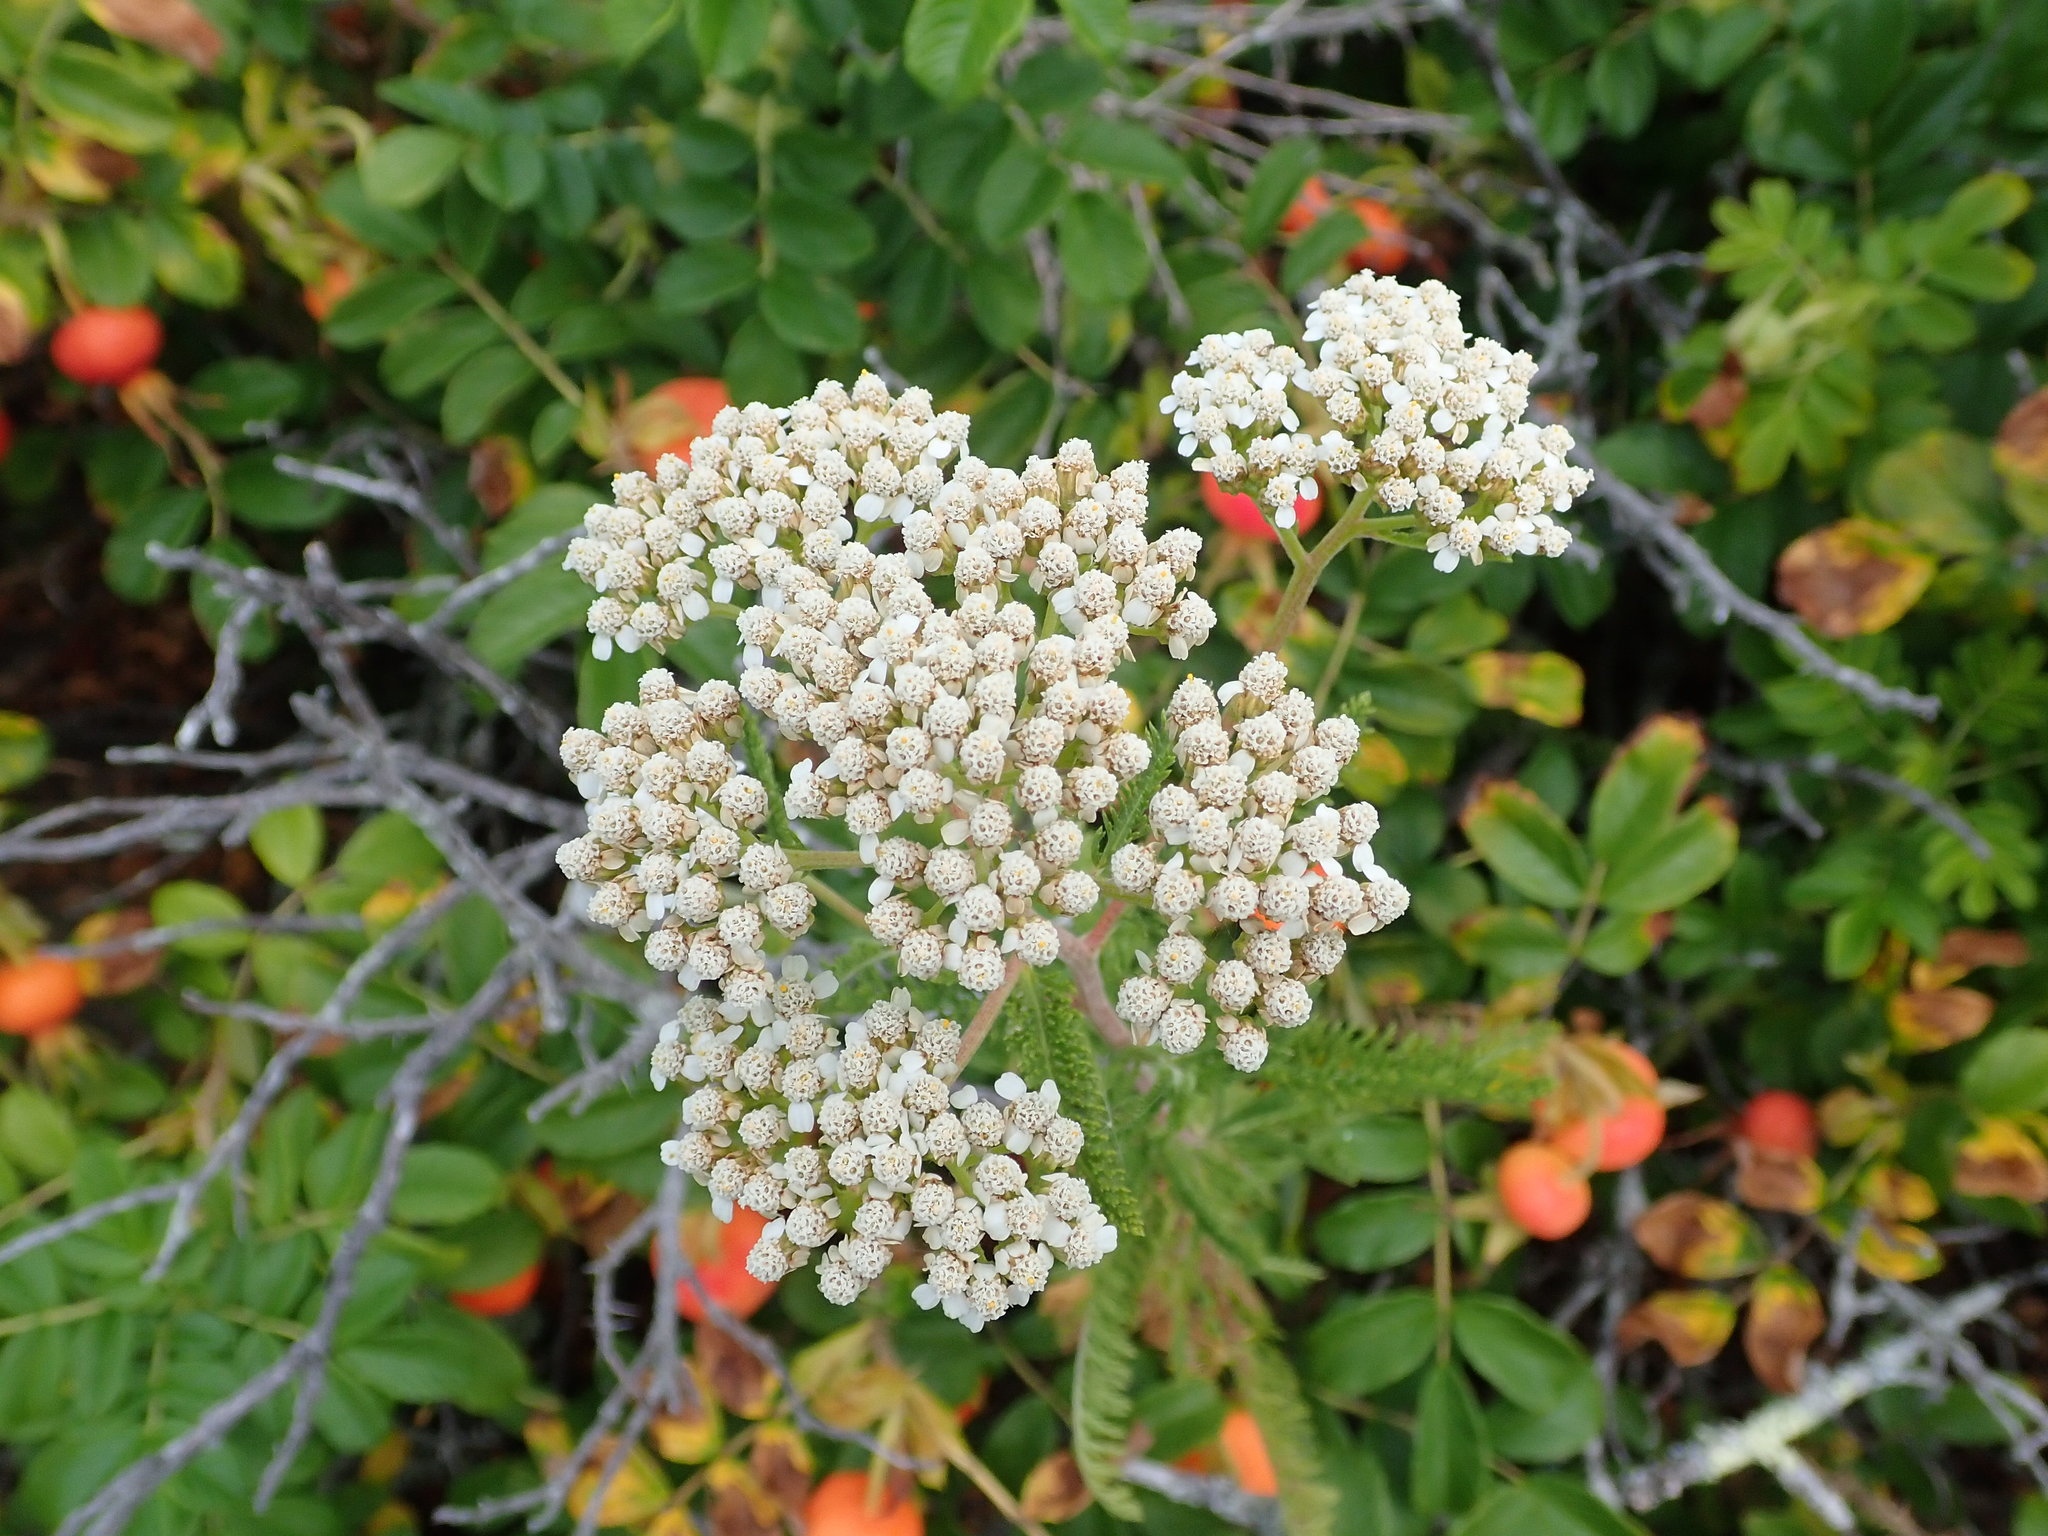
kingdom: Plantae
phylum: Tracheophyta
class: Magnoliopsida
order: Asterales
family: Asteraceae
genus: Achillea
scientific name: Achillea millefolium
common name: Yarrow
